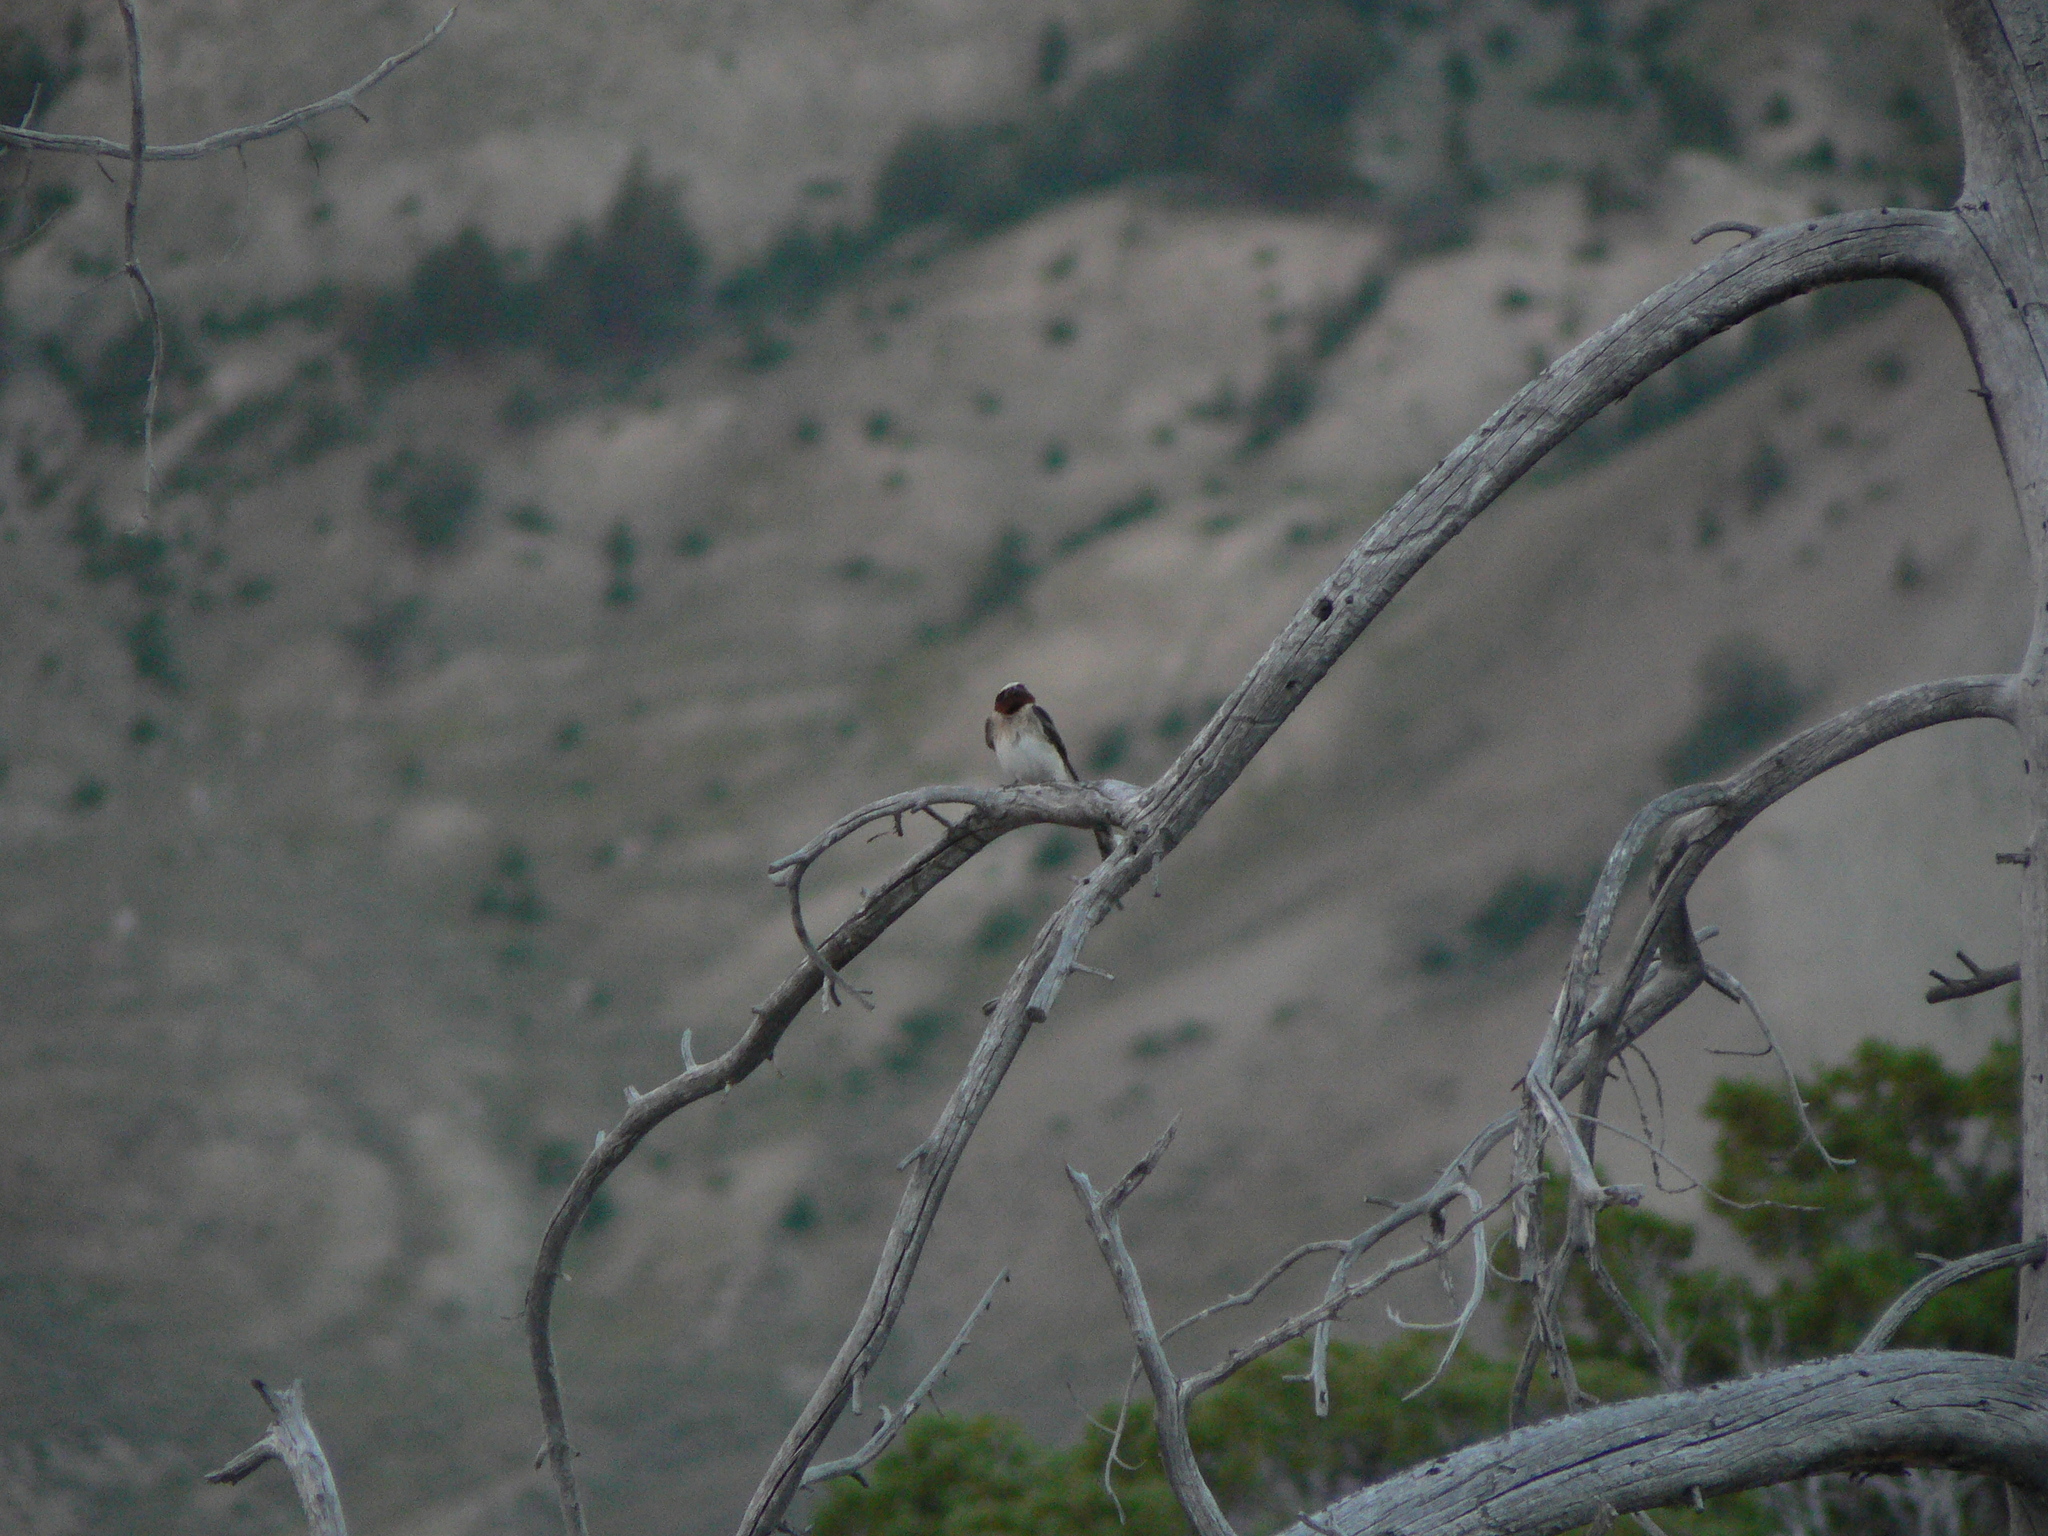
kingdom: Animalia
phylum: Chordata
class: Aves
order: Passeriformes
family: Hirundinidae
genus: Petrochelidon
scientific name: Petrochelidon pyrrhonota
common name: American cliff swallow
